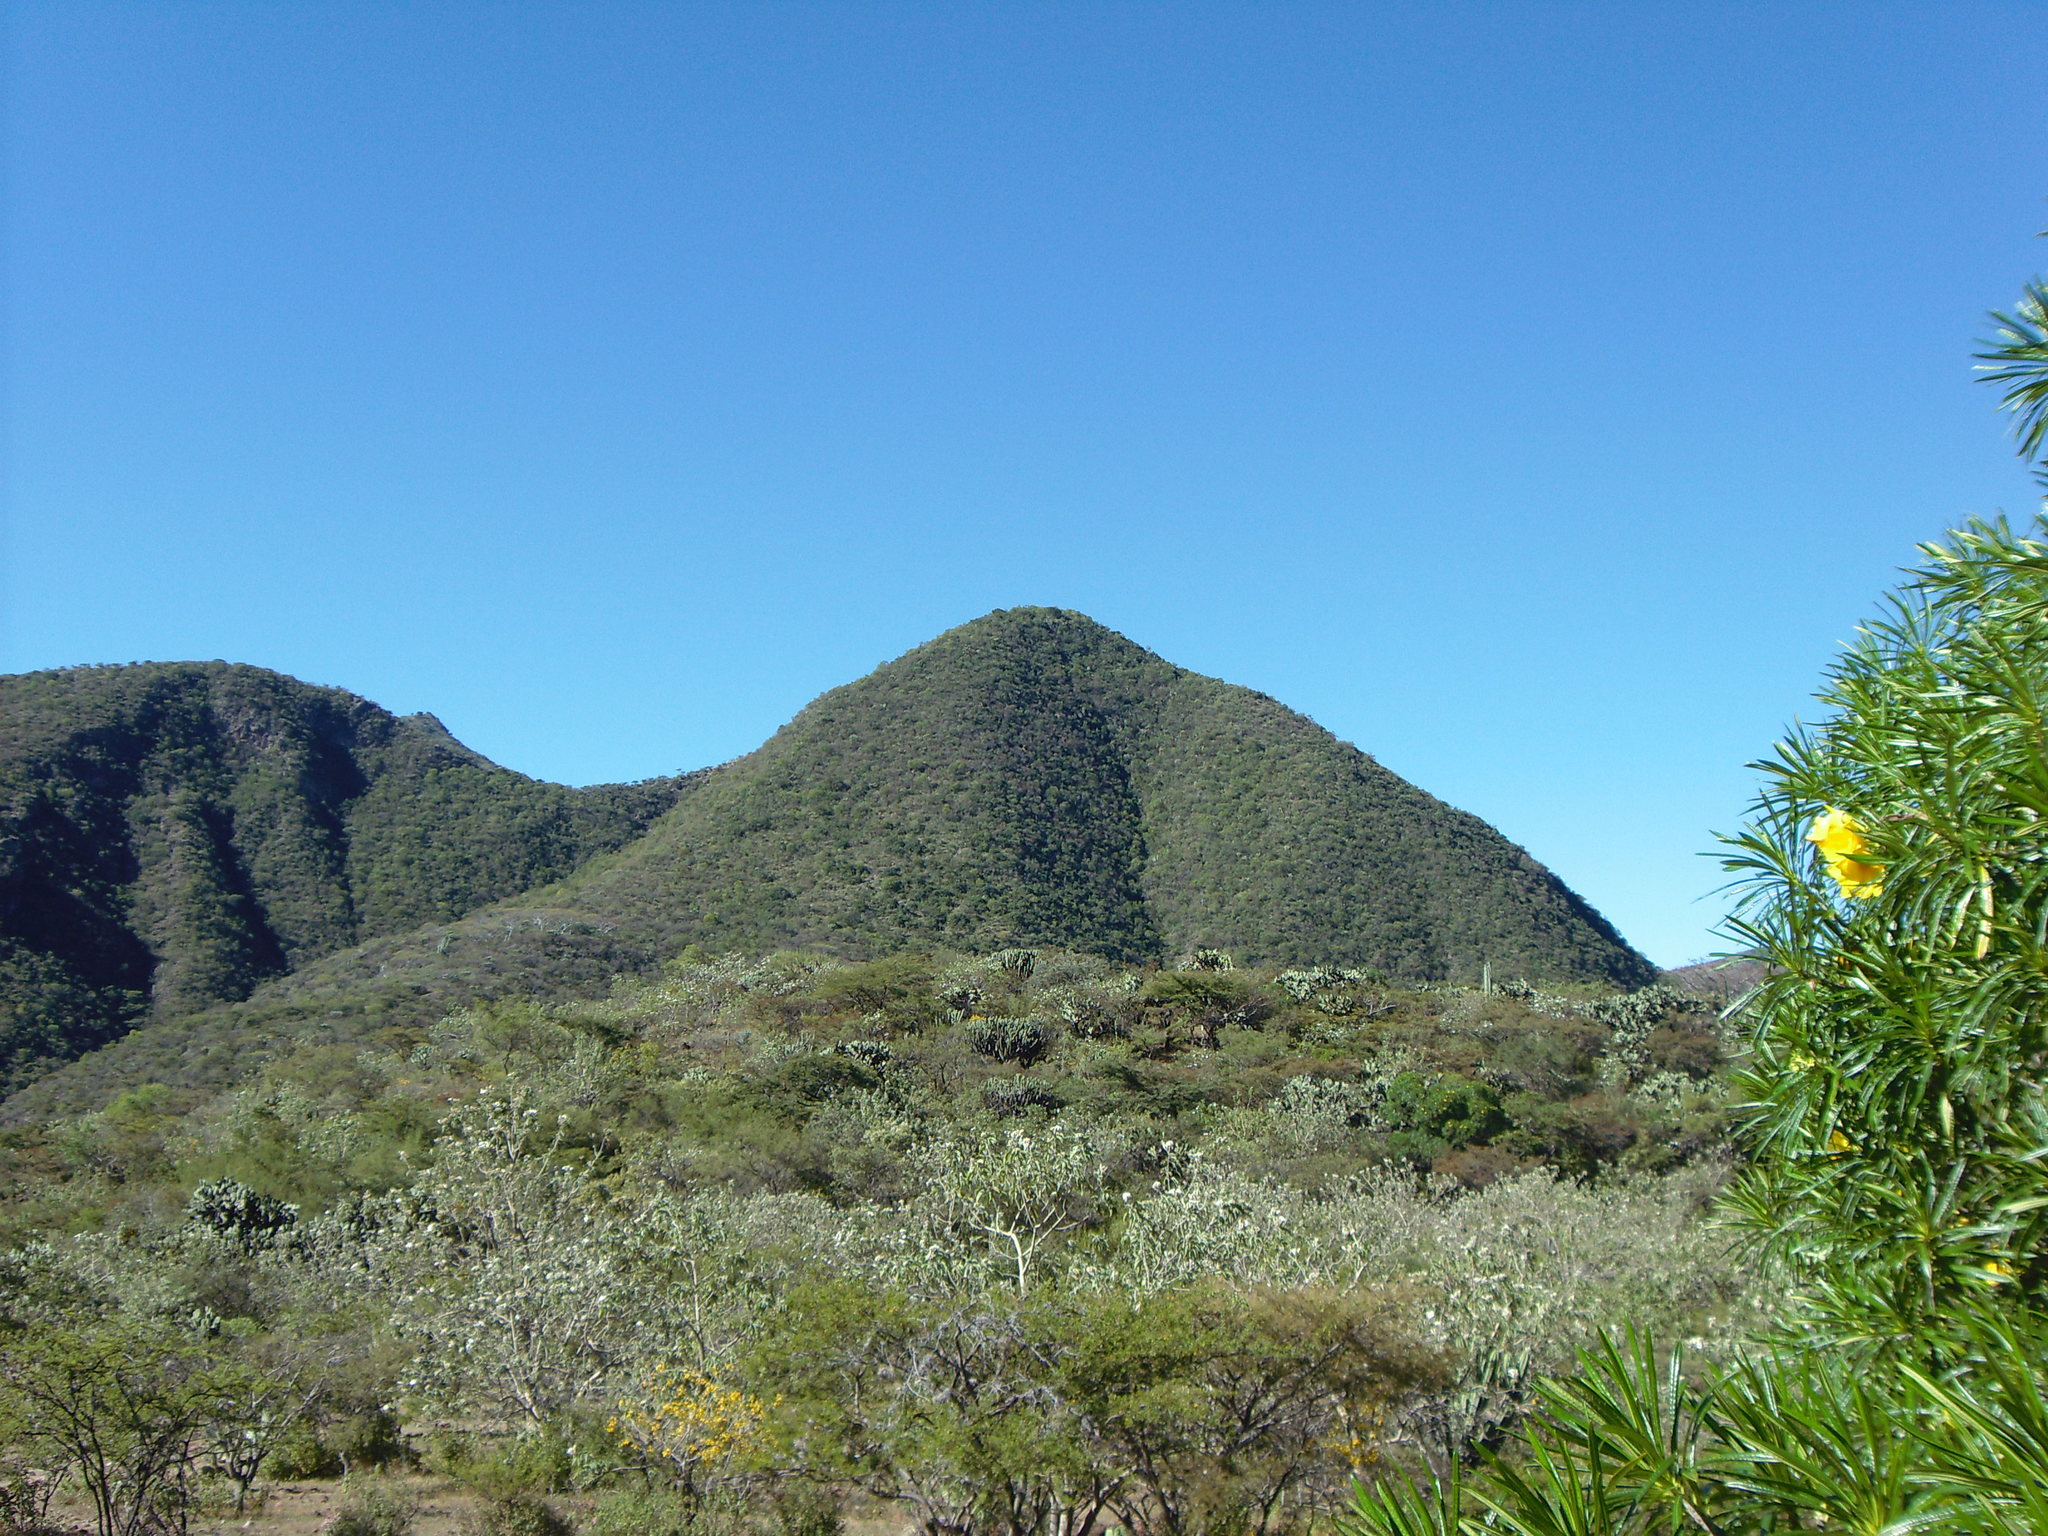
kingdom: Plantae
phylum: Tracheophyta
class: Magnoliopsida
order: Gentianales
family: Apocynaceae
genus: Cascabela
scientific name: Cascabela thevetioides
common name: Yellow oleander
